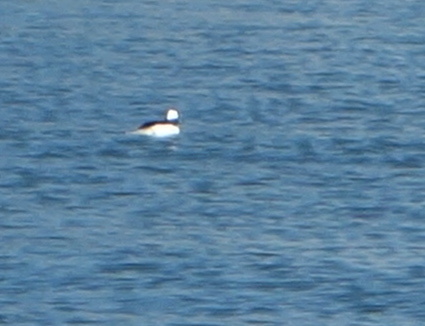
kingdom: Animalia
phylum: Chordata
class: Aves
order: Anseriformes
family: Anatidae
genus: Bucephala
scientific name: Bucephala albeola
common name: Bufflehead
